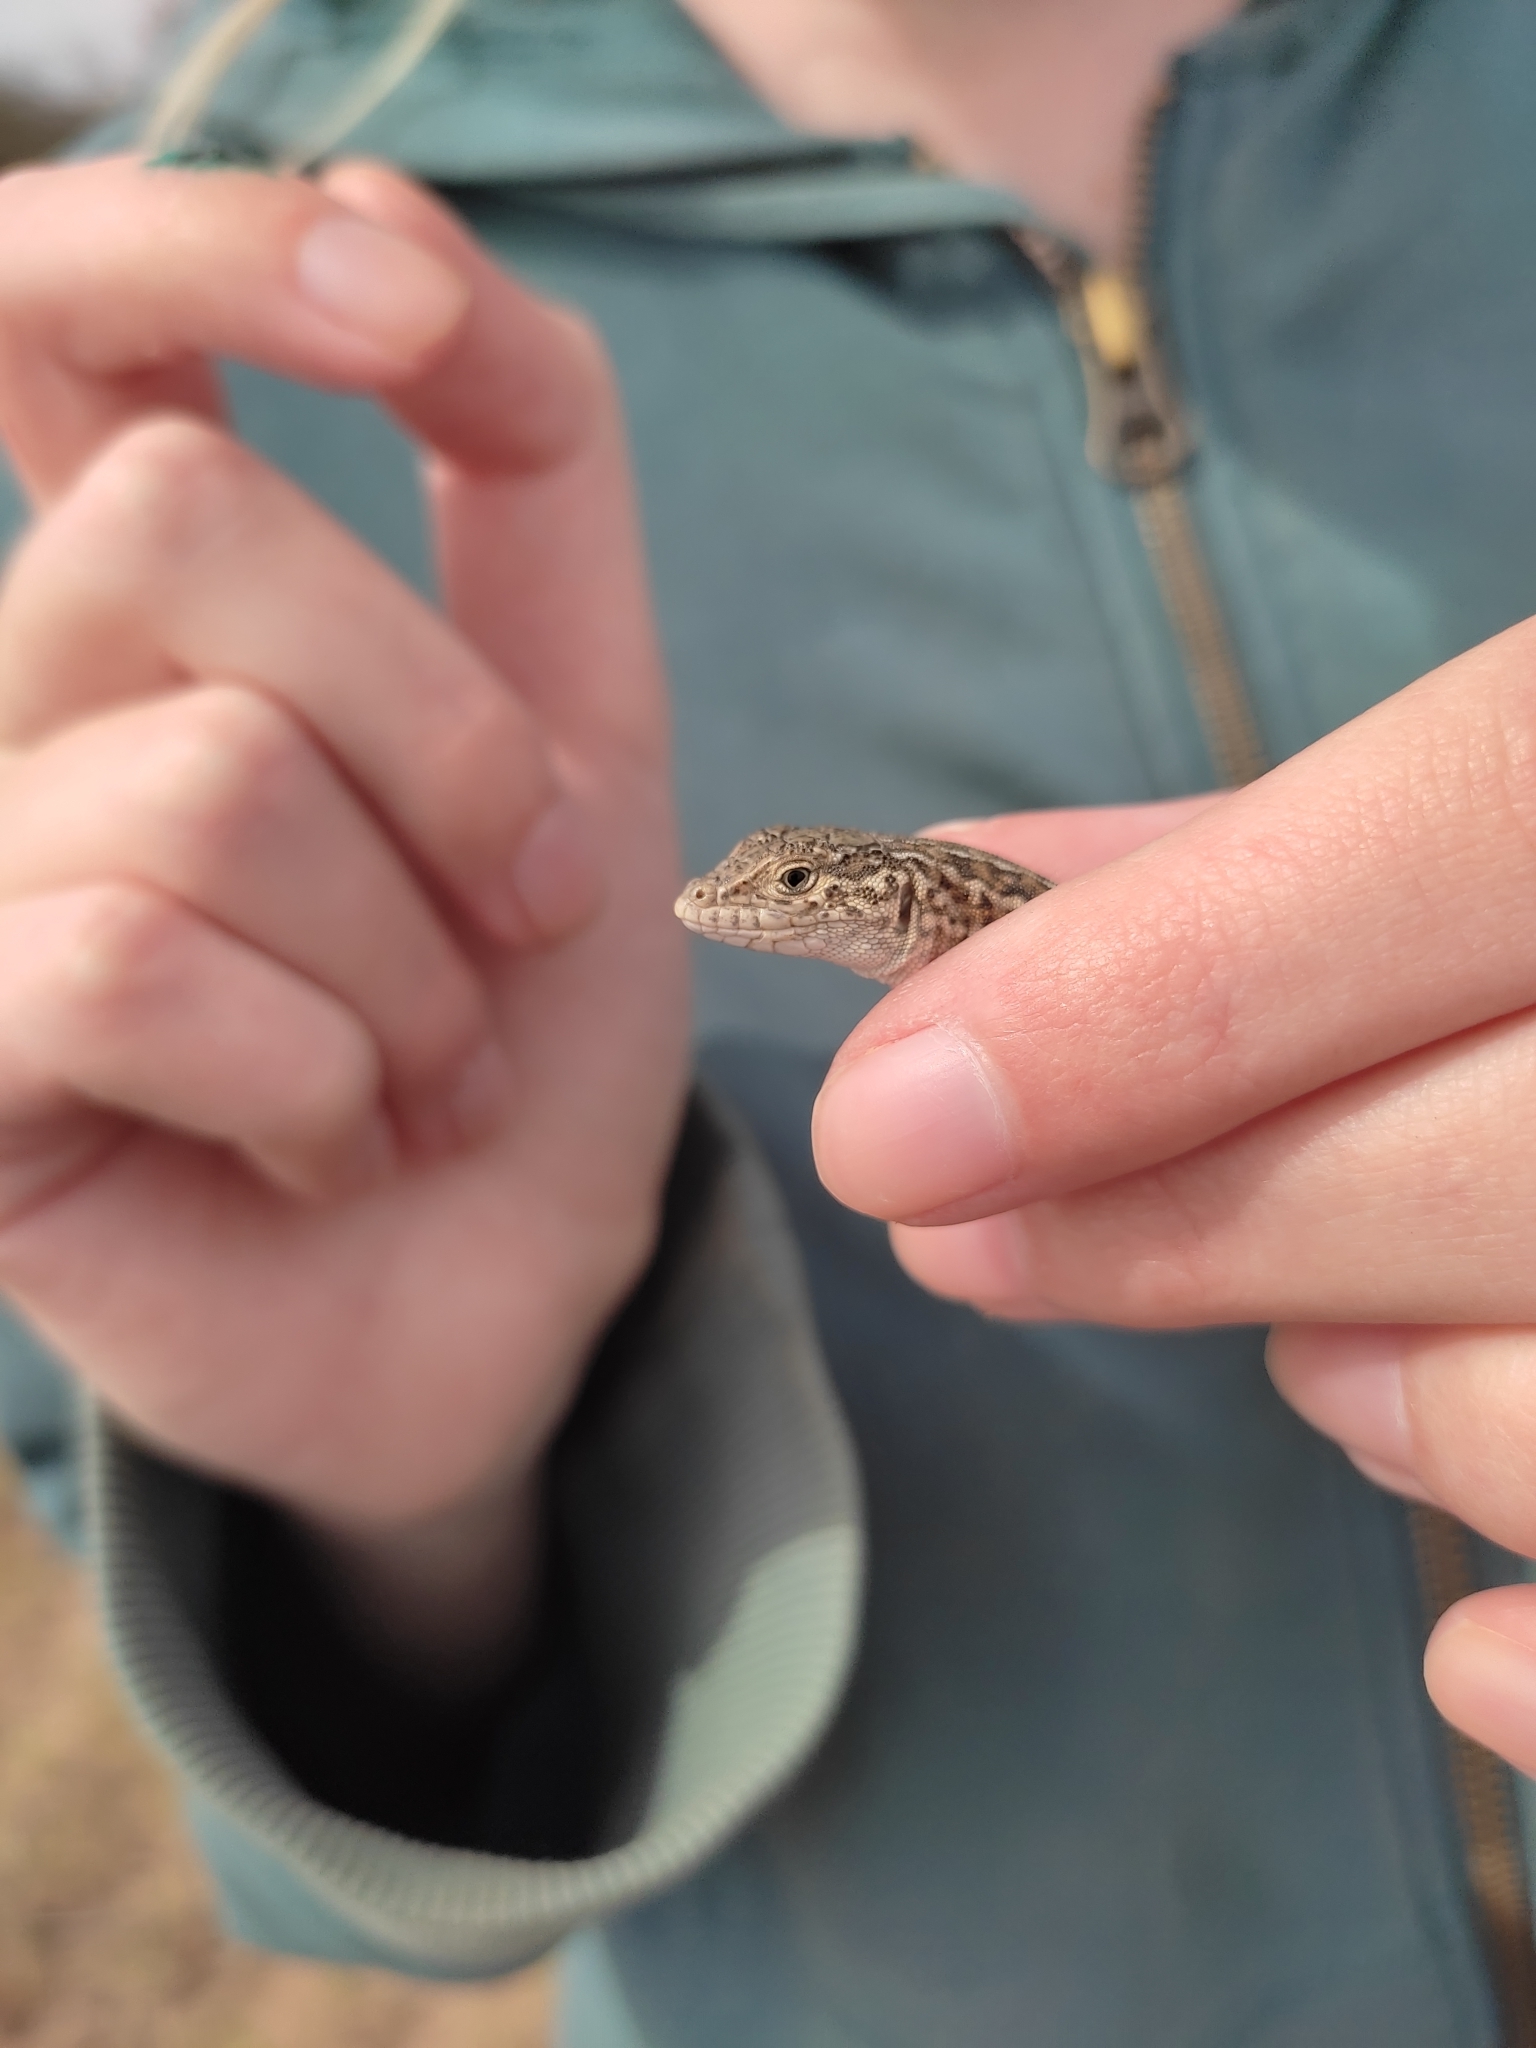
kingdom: Animalia
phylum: Chordata
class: Squamata
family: Lacertidae
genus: Eremias
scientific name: Eremias arguta
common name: Racerunner
